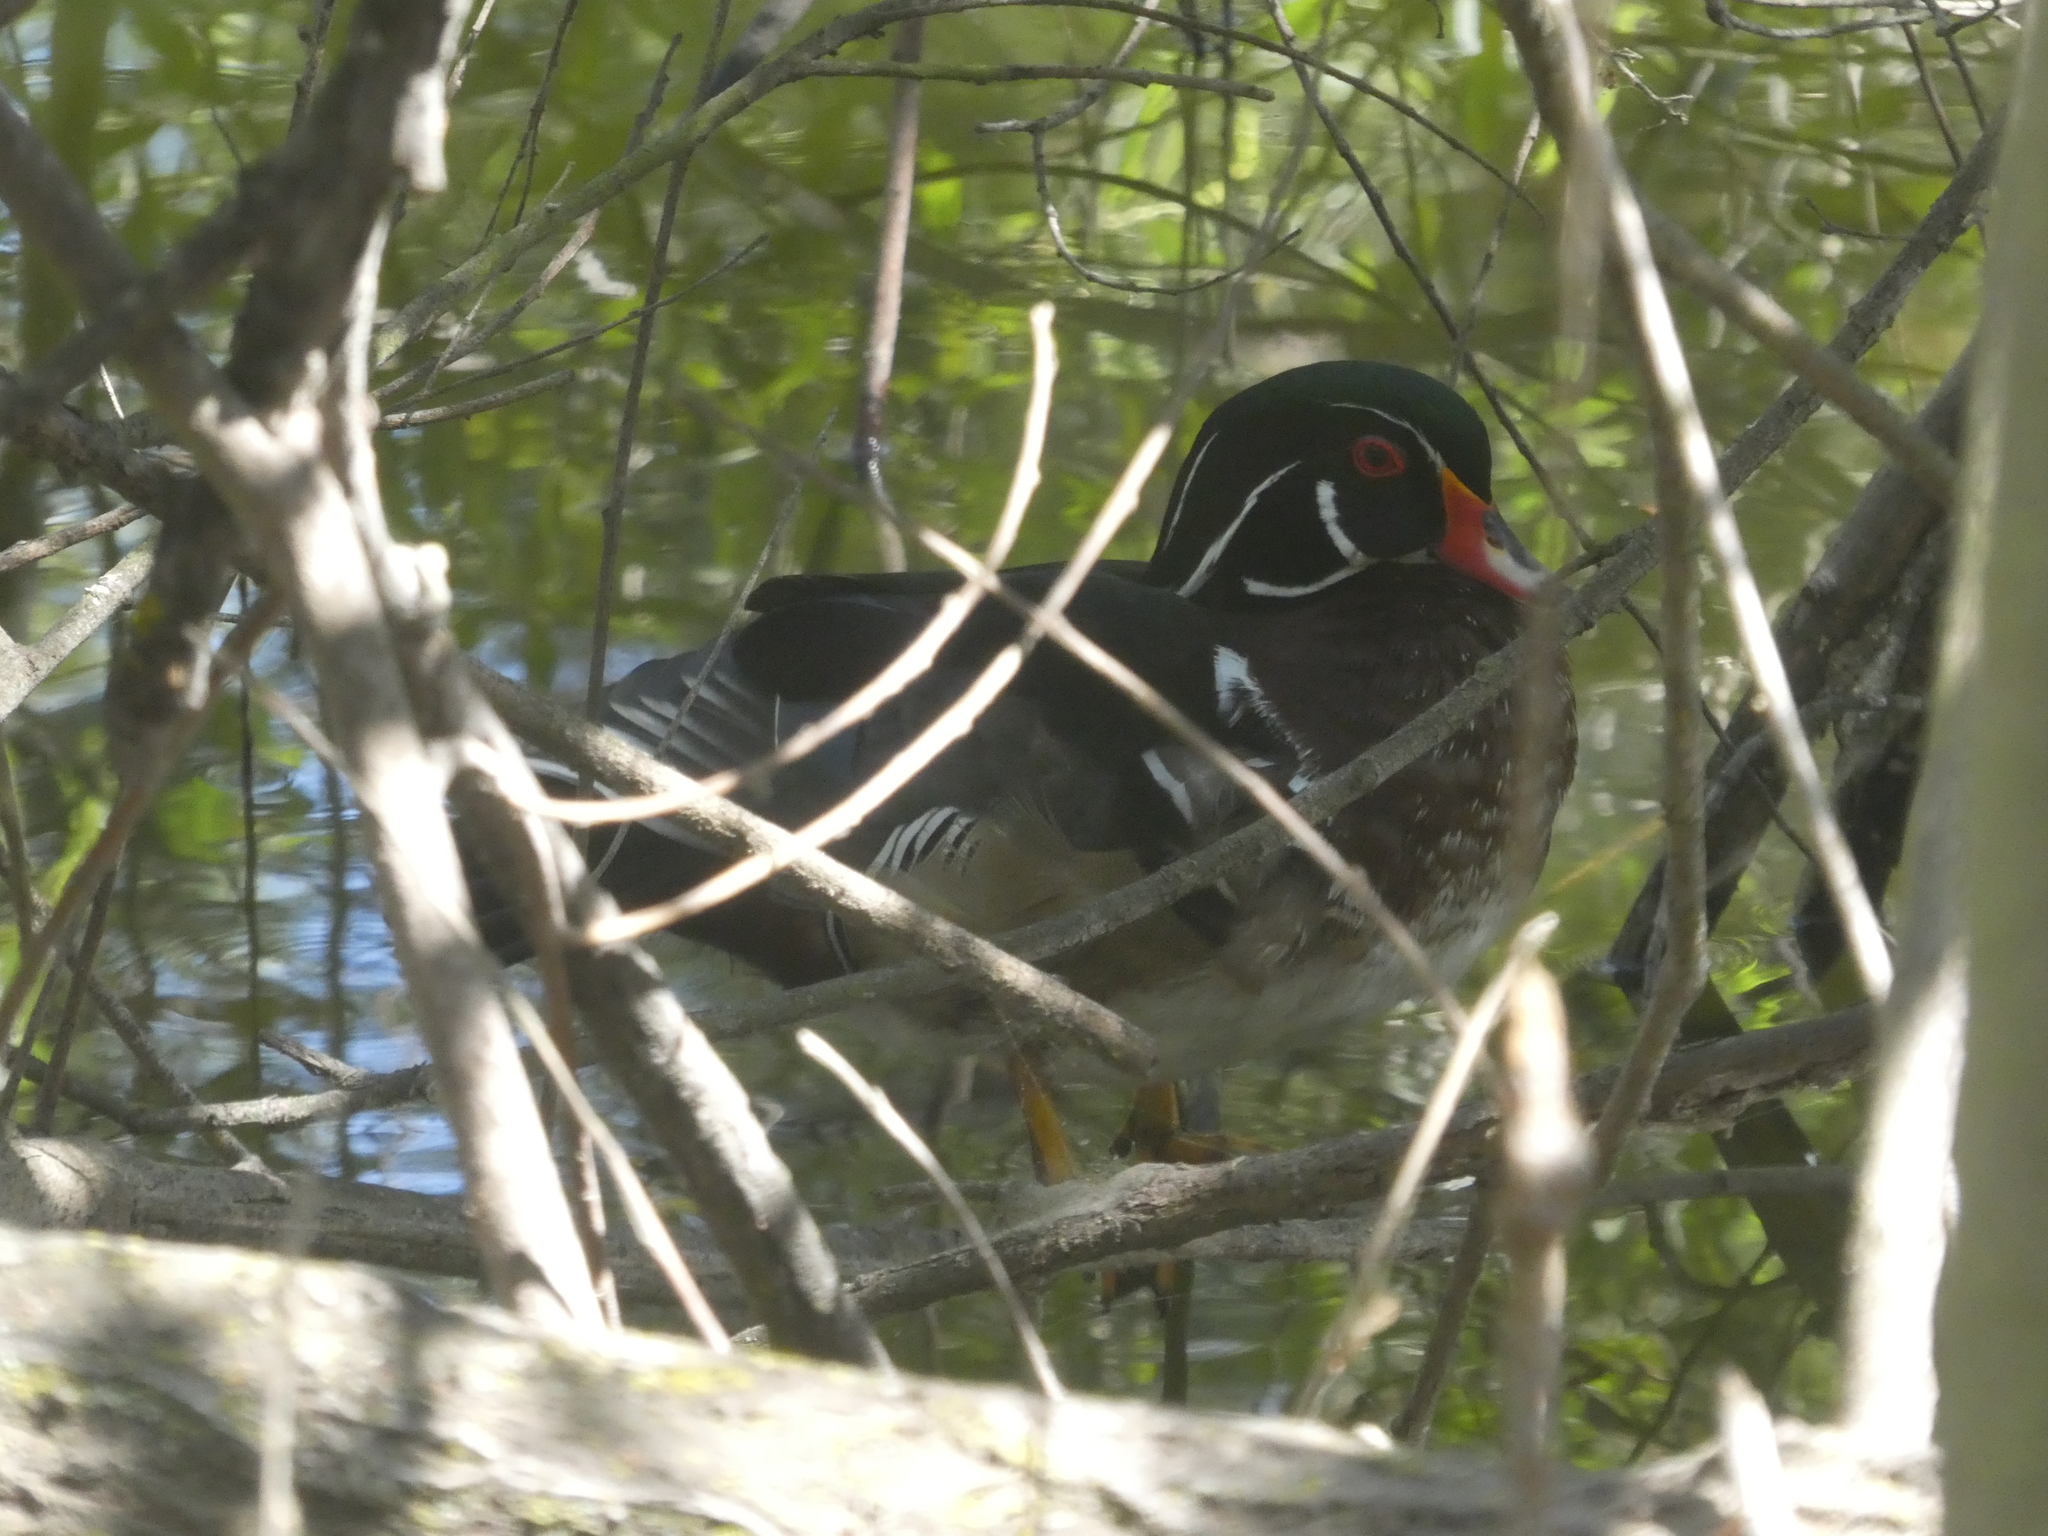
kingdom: Animalia
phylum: Chordata
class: Aves
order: Anseriformes
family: Anatidae
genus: Aix
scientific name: Aix sponsa
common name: Wood duck
